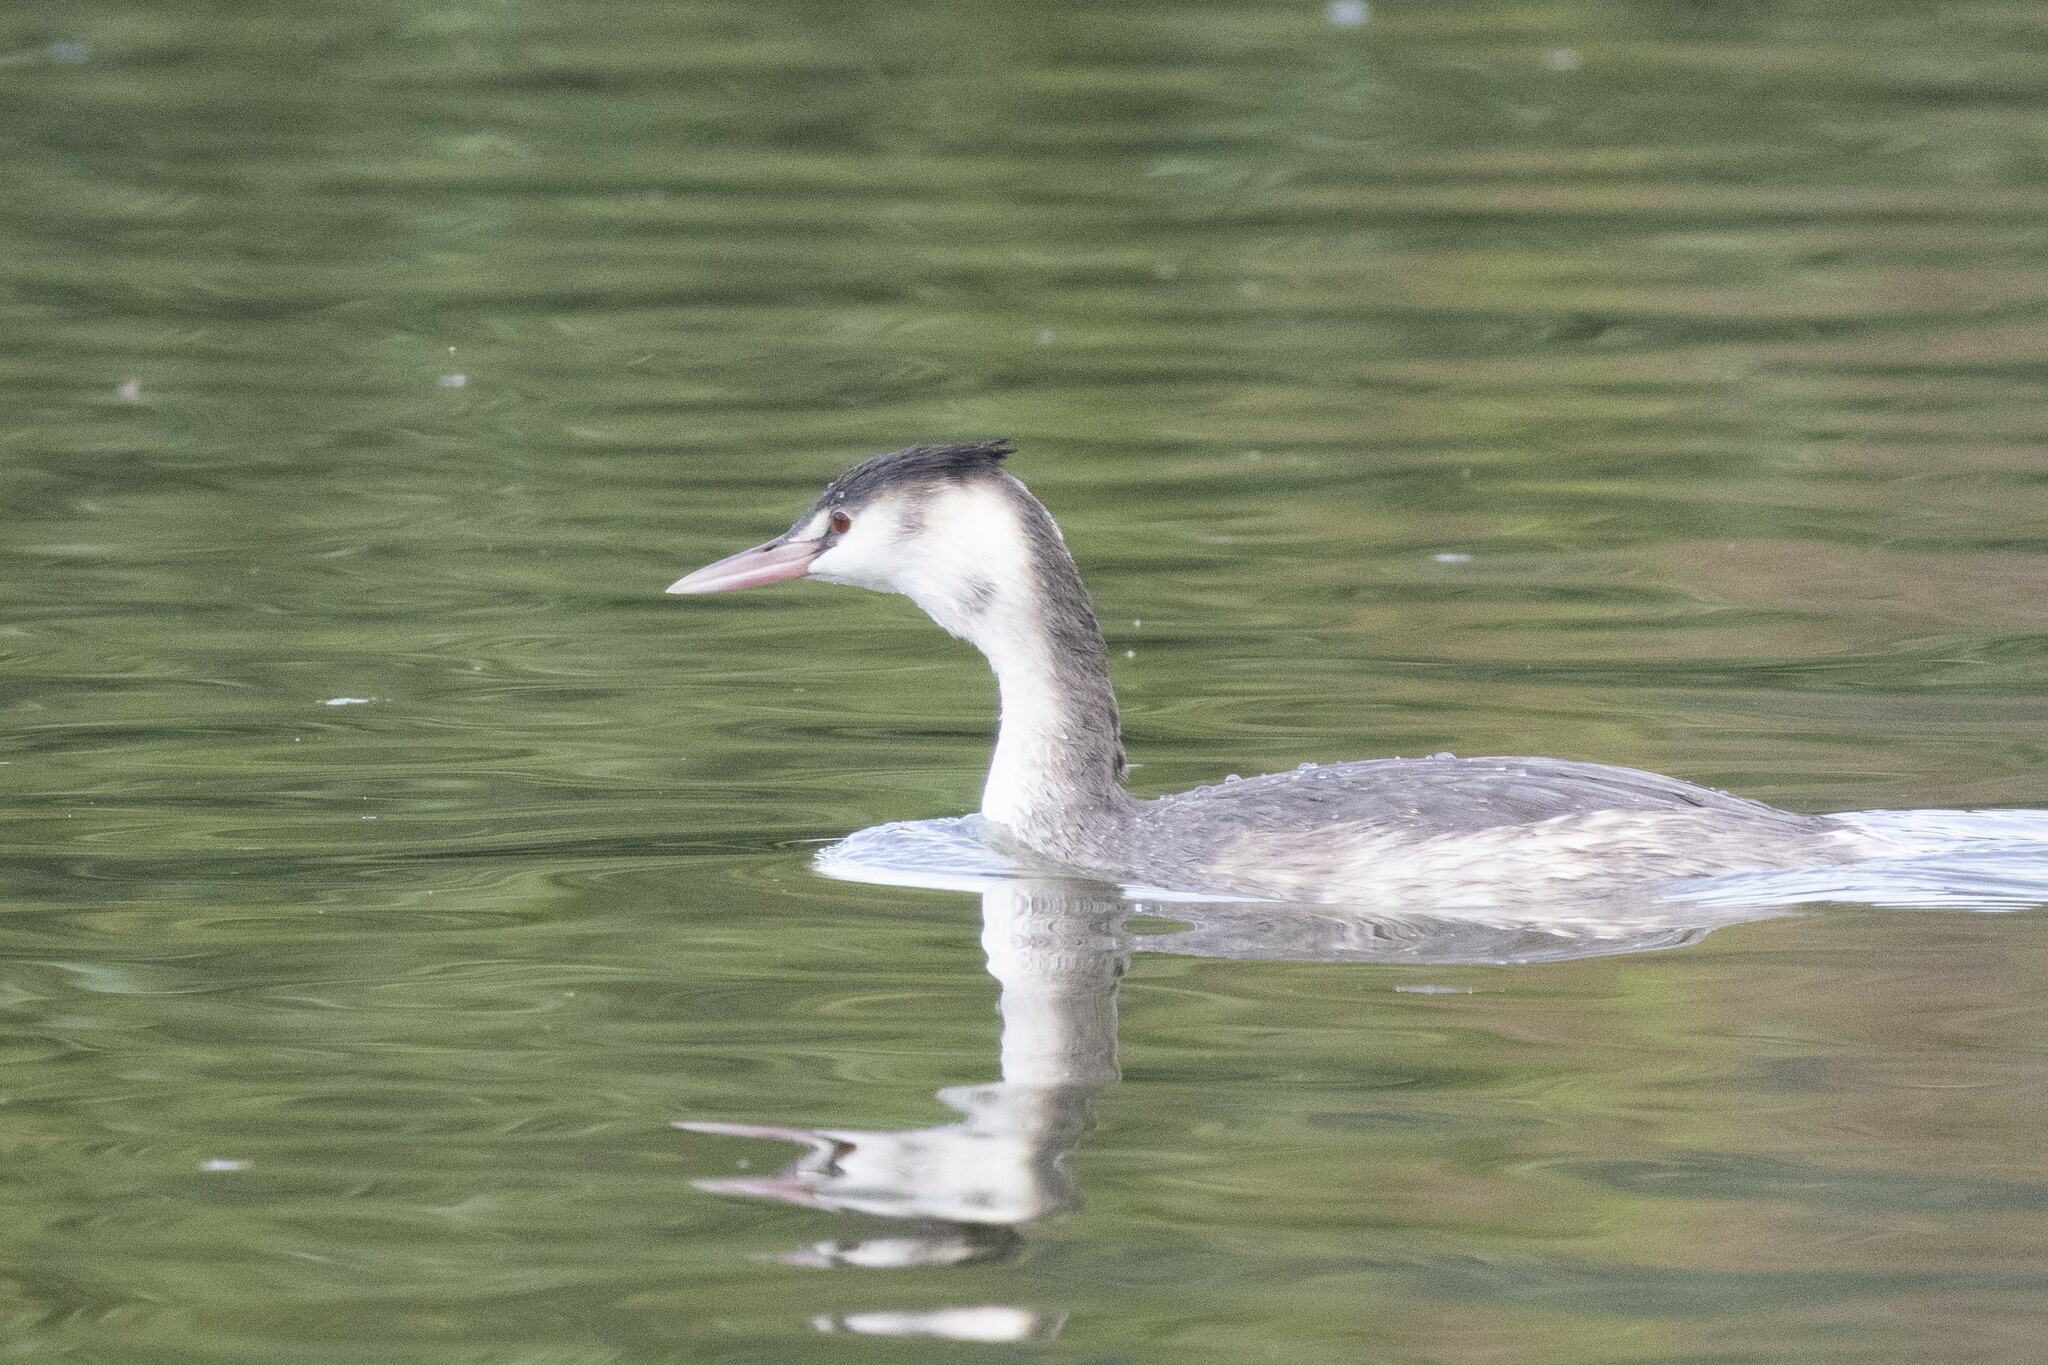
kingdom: Animalia
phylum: Chordata
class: Aves
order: Podicipediformes
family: Podicipedidae
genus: Podiceps
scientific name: Podiceps cristatus
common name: Great crested grebe
